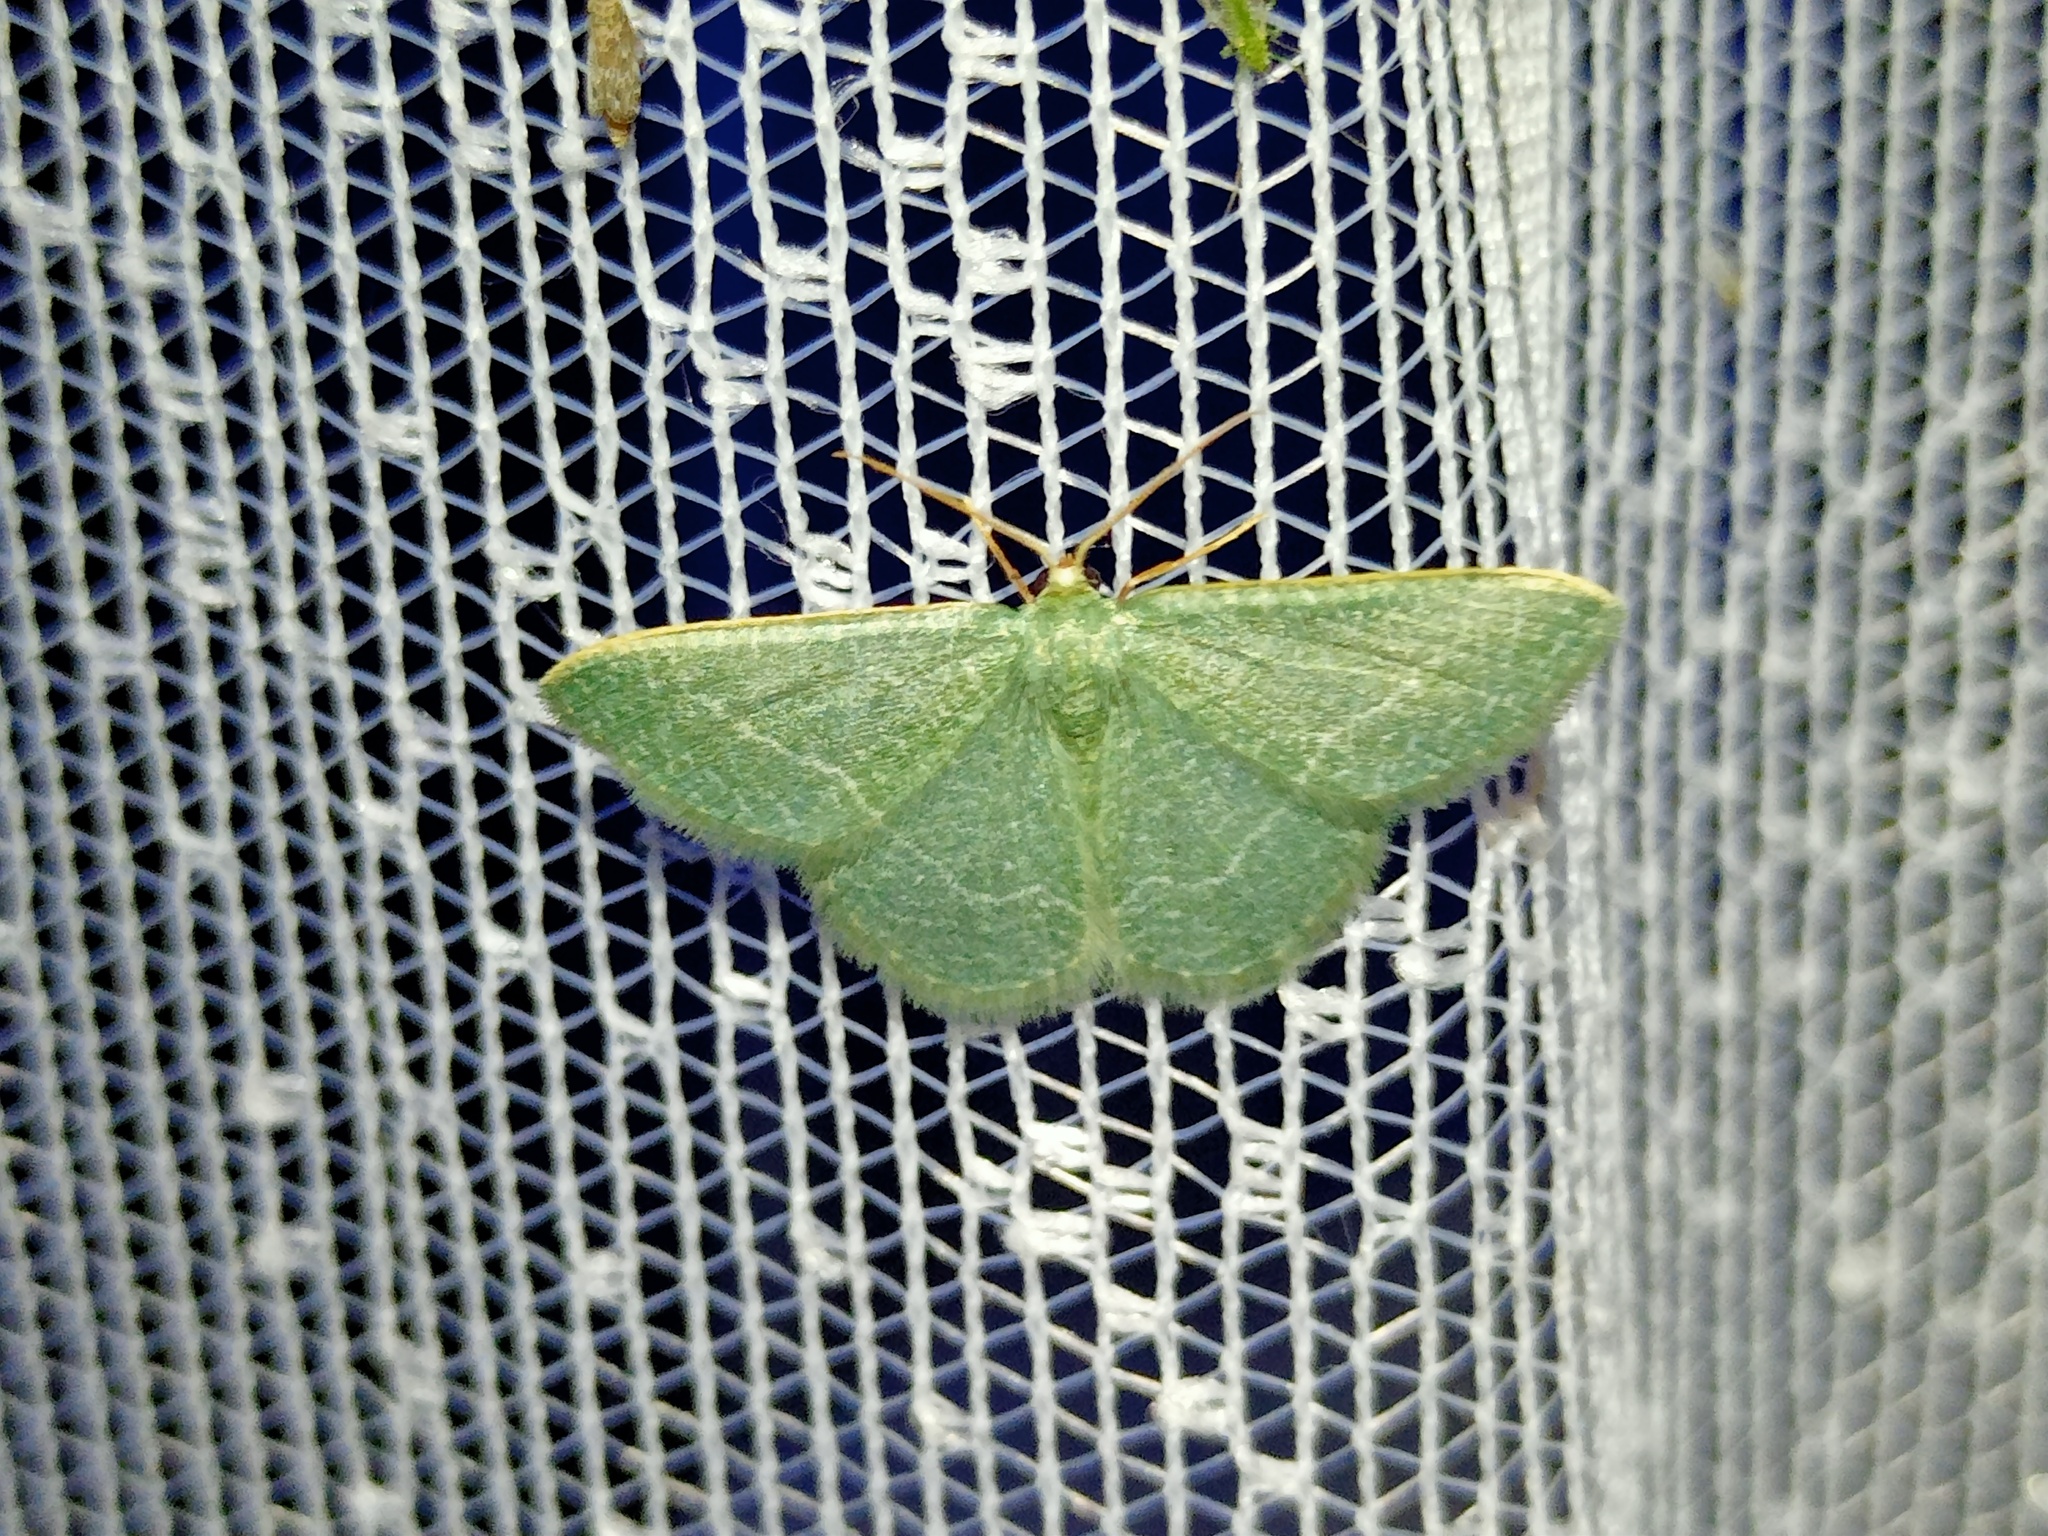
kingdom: Animalia
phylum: Arthropoda
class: Insecta
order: Lepidoptera
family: Geometridae
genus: Chlorissa
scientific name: Chlorissa etruscaria
